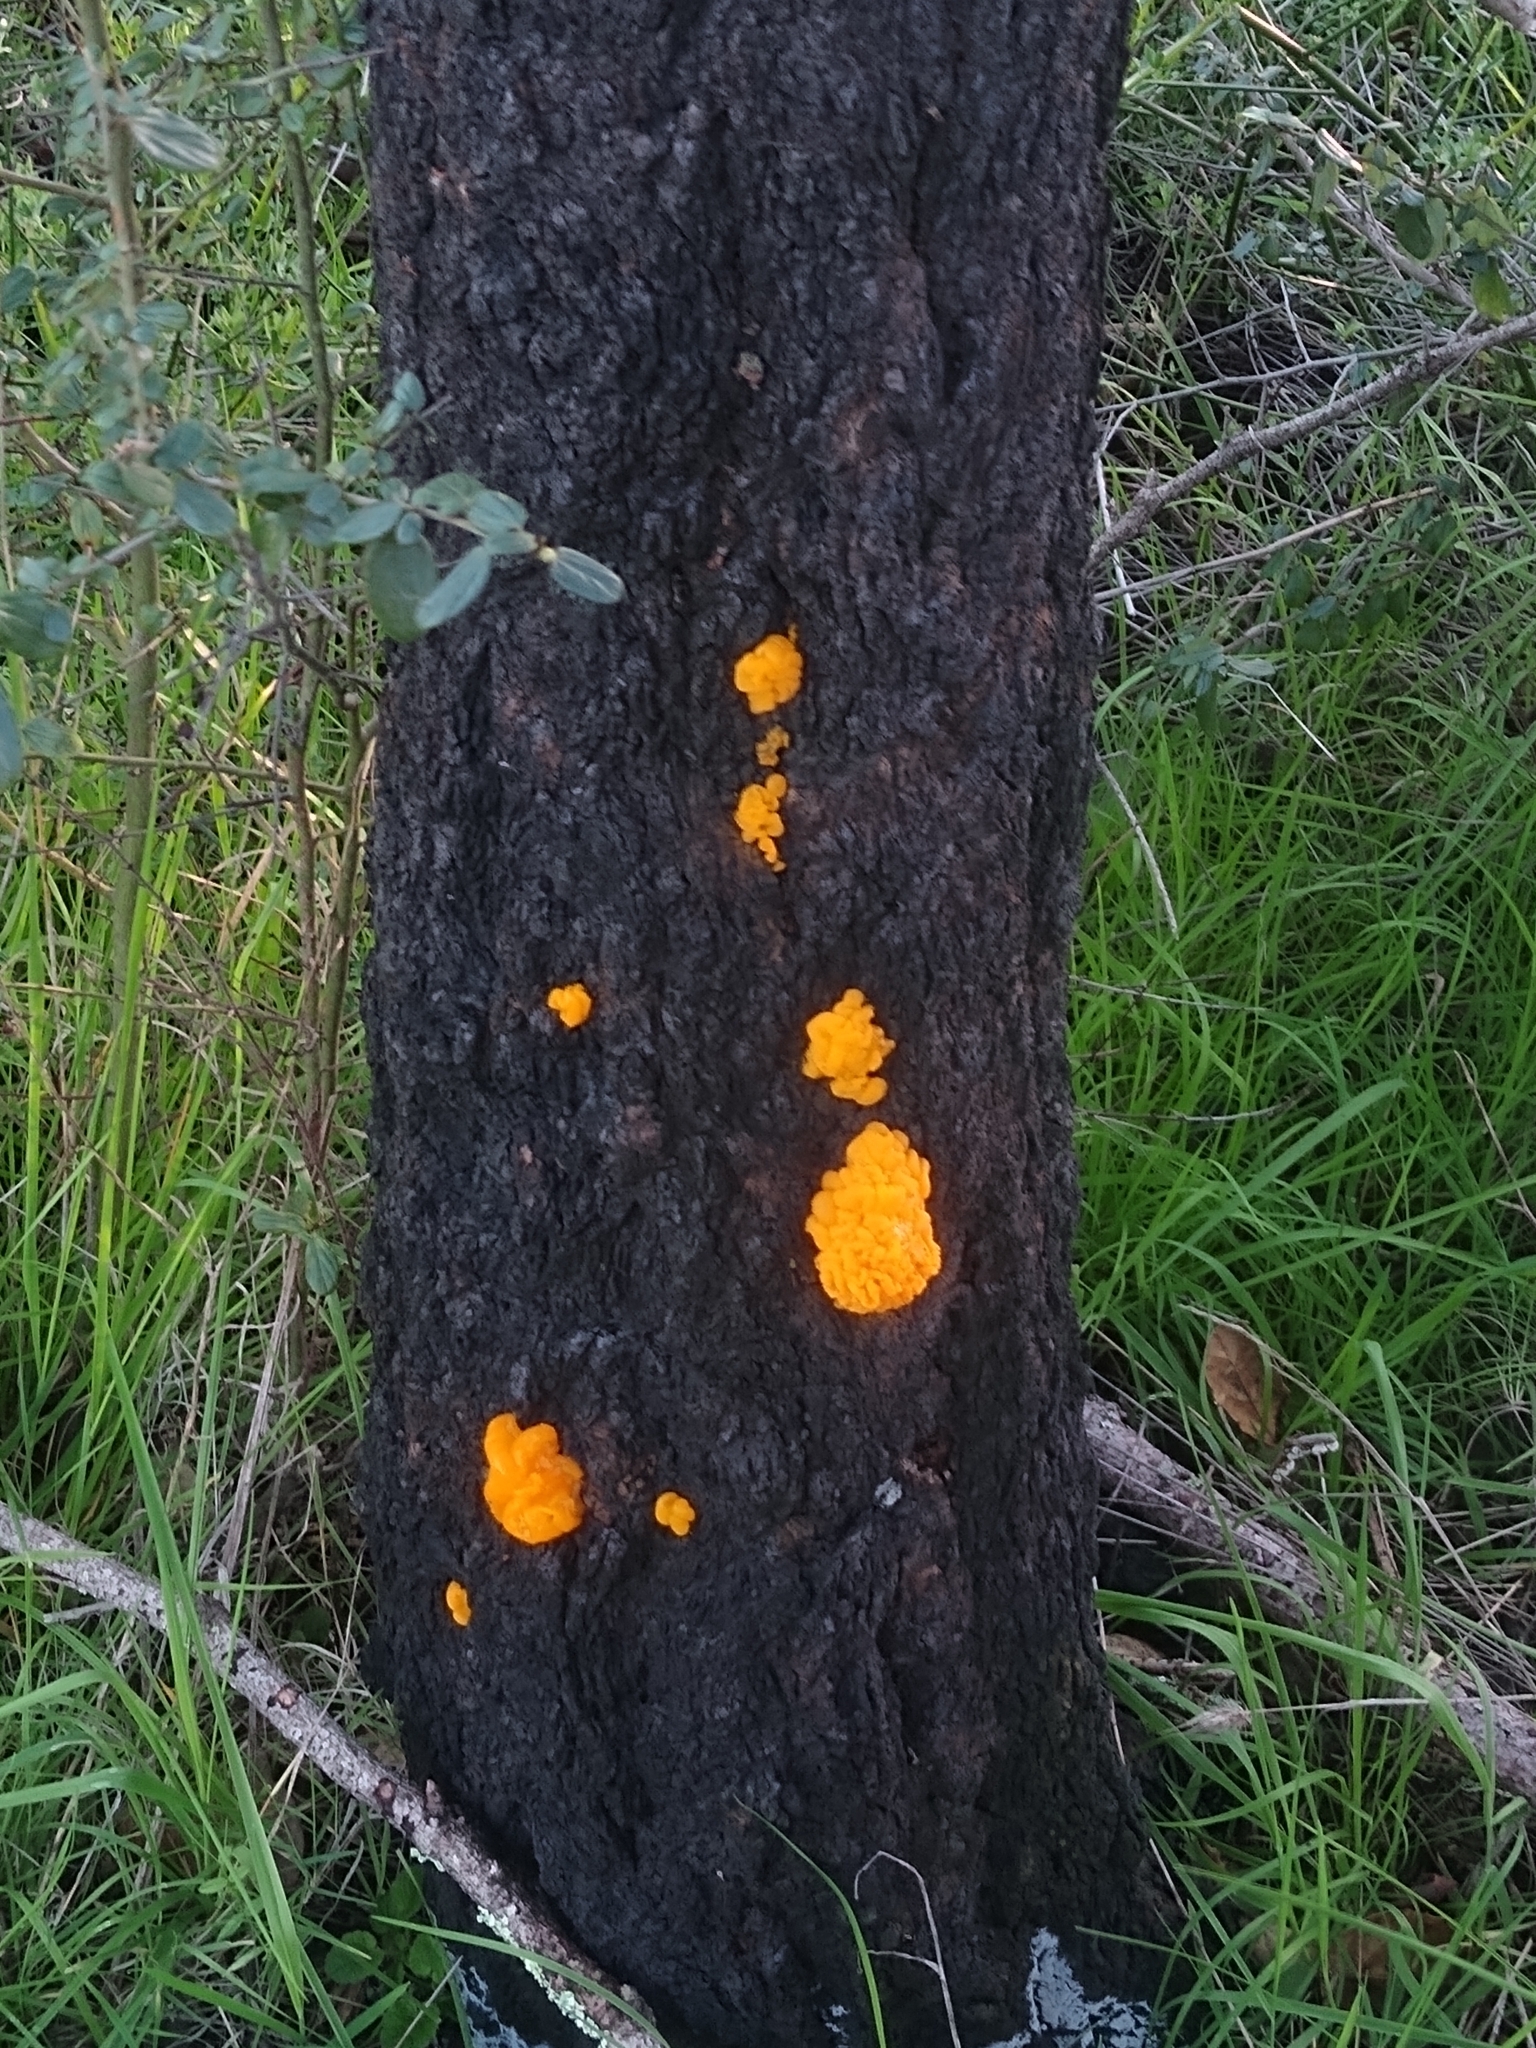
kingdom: Fungi
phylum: Basidiomycota
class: Dacrymycetes
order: Dacrymycetales
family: Dacrymycetaceae
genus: Dacrymyces
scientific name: Dacrymyces chrysospermus
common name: Orange jelly spot
